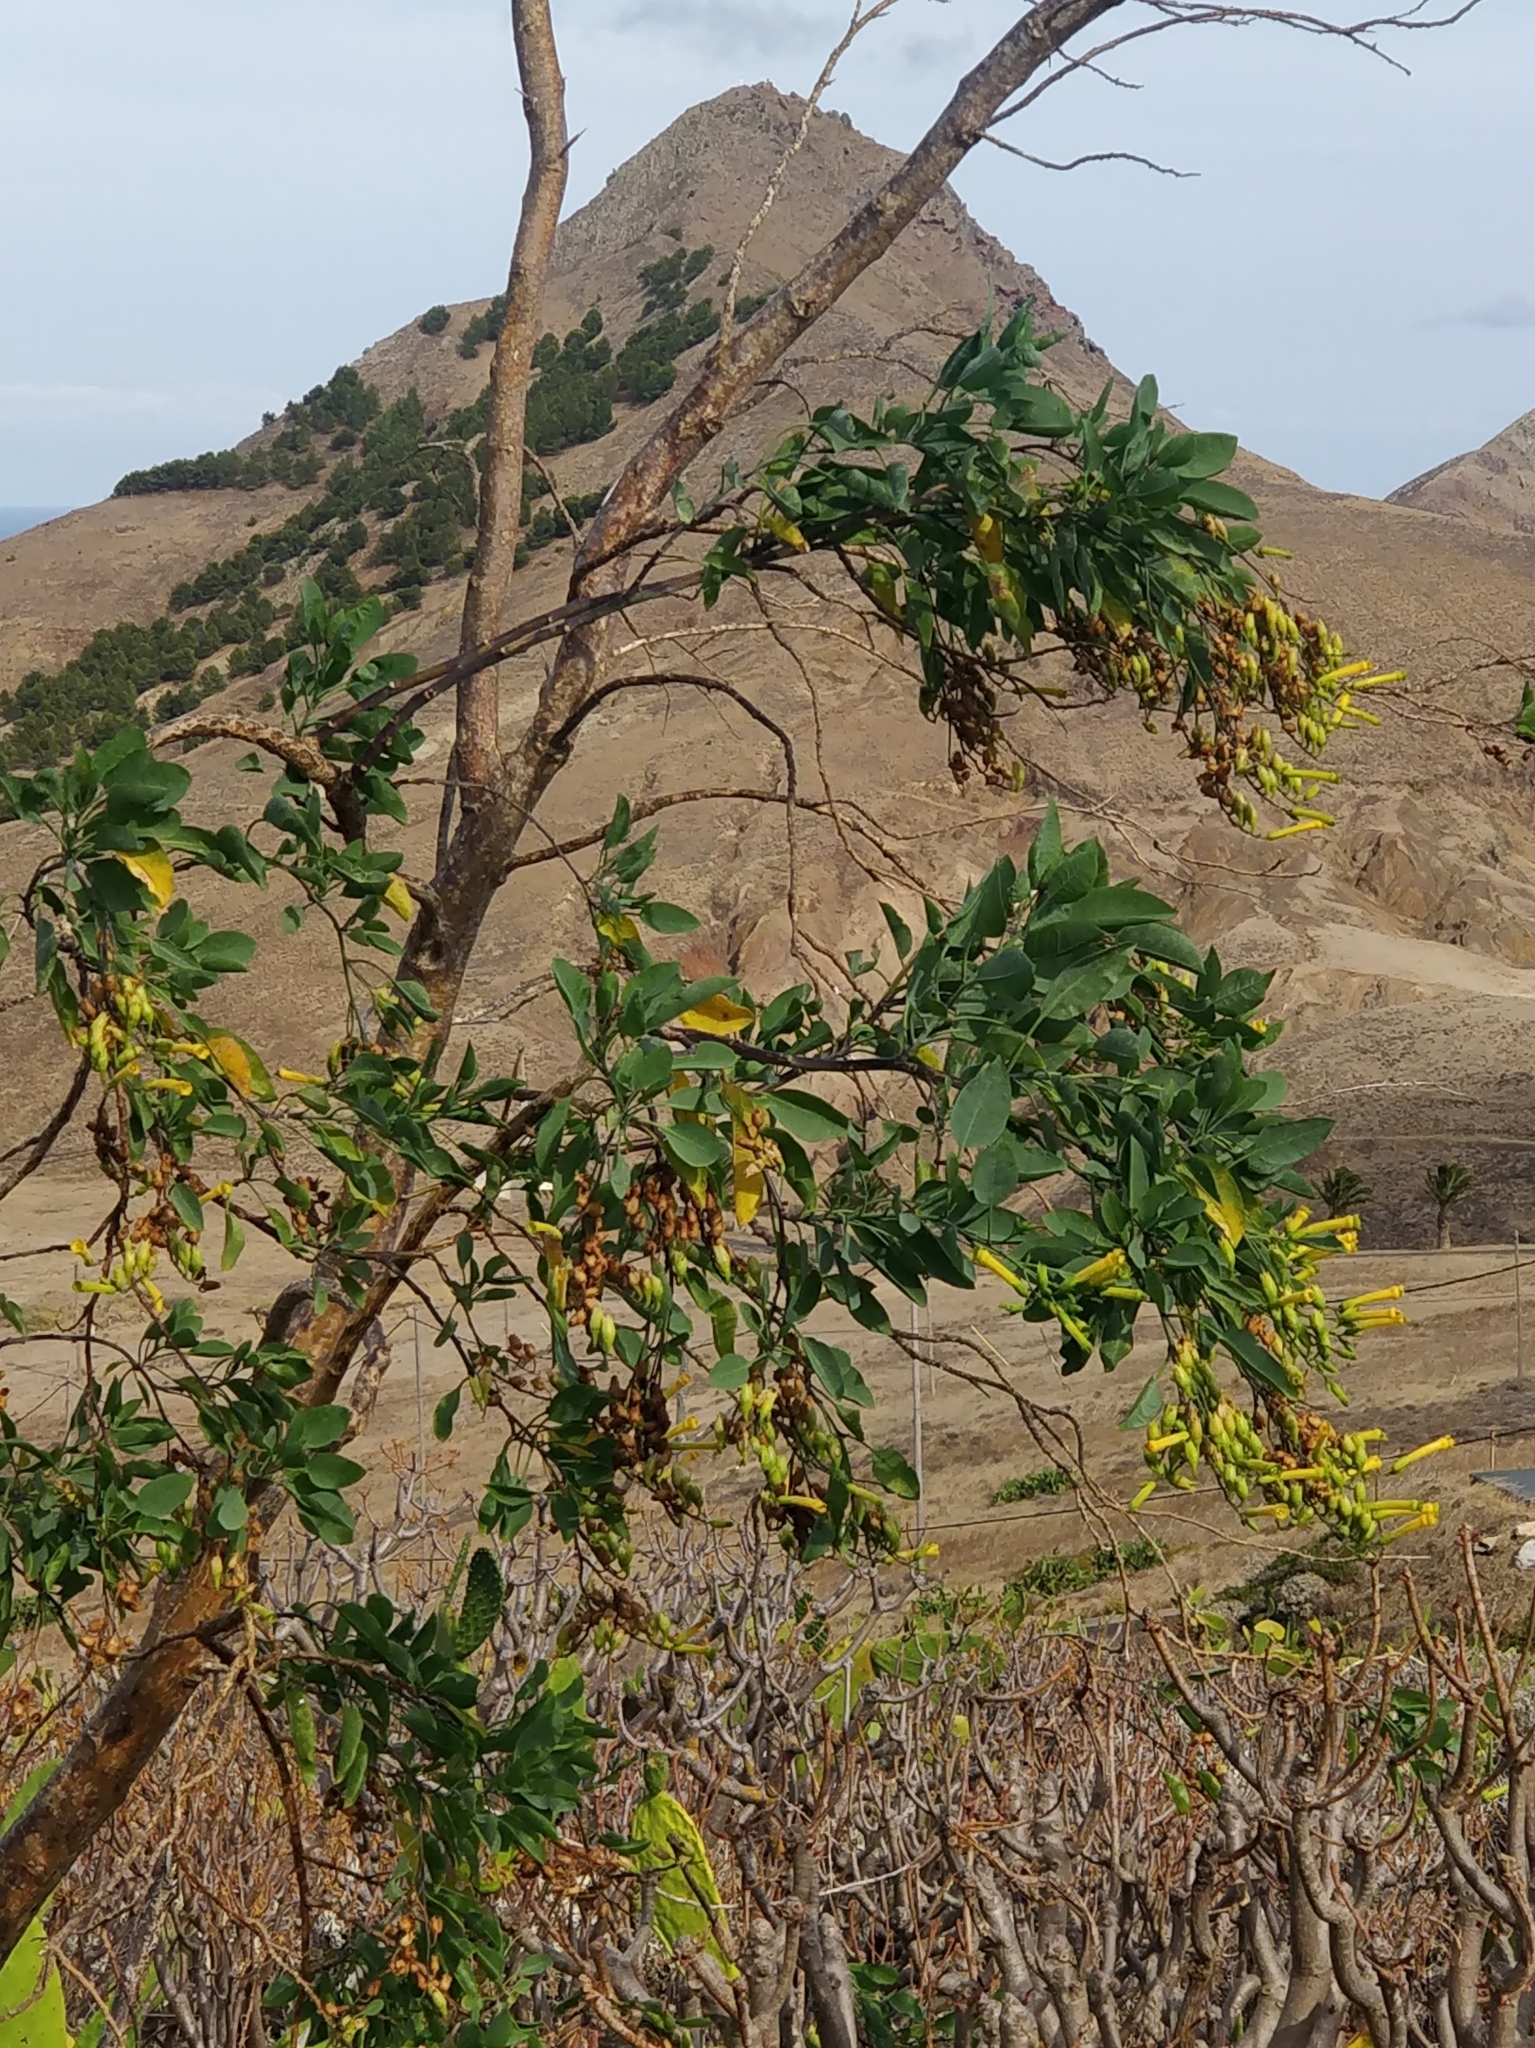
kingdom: Plantae
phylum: Tracheophyta
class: Magnoliopsida
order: Solanales
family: Solanaceae
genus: Nicotiana
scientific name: Nicotiana glauca
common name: Tree tobacco
